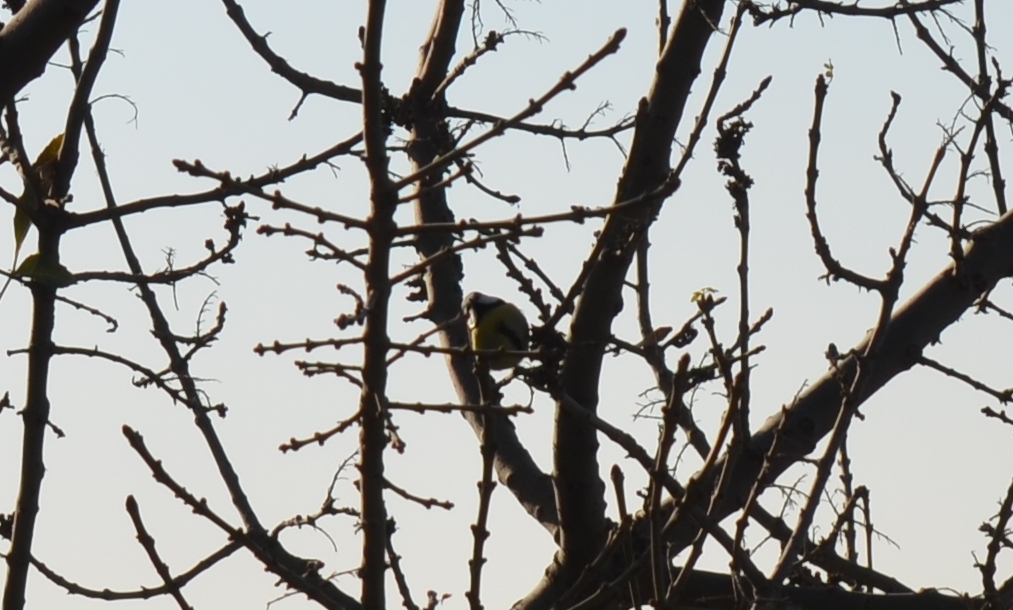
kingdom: Animalia
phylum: Chordata
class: Aves
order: Passeriformes
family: Paridae
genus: Cyanistes
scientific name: Cyanistes teneriffae
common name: African blue tit
